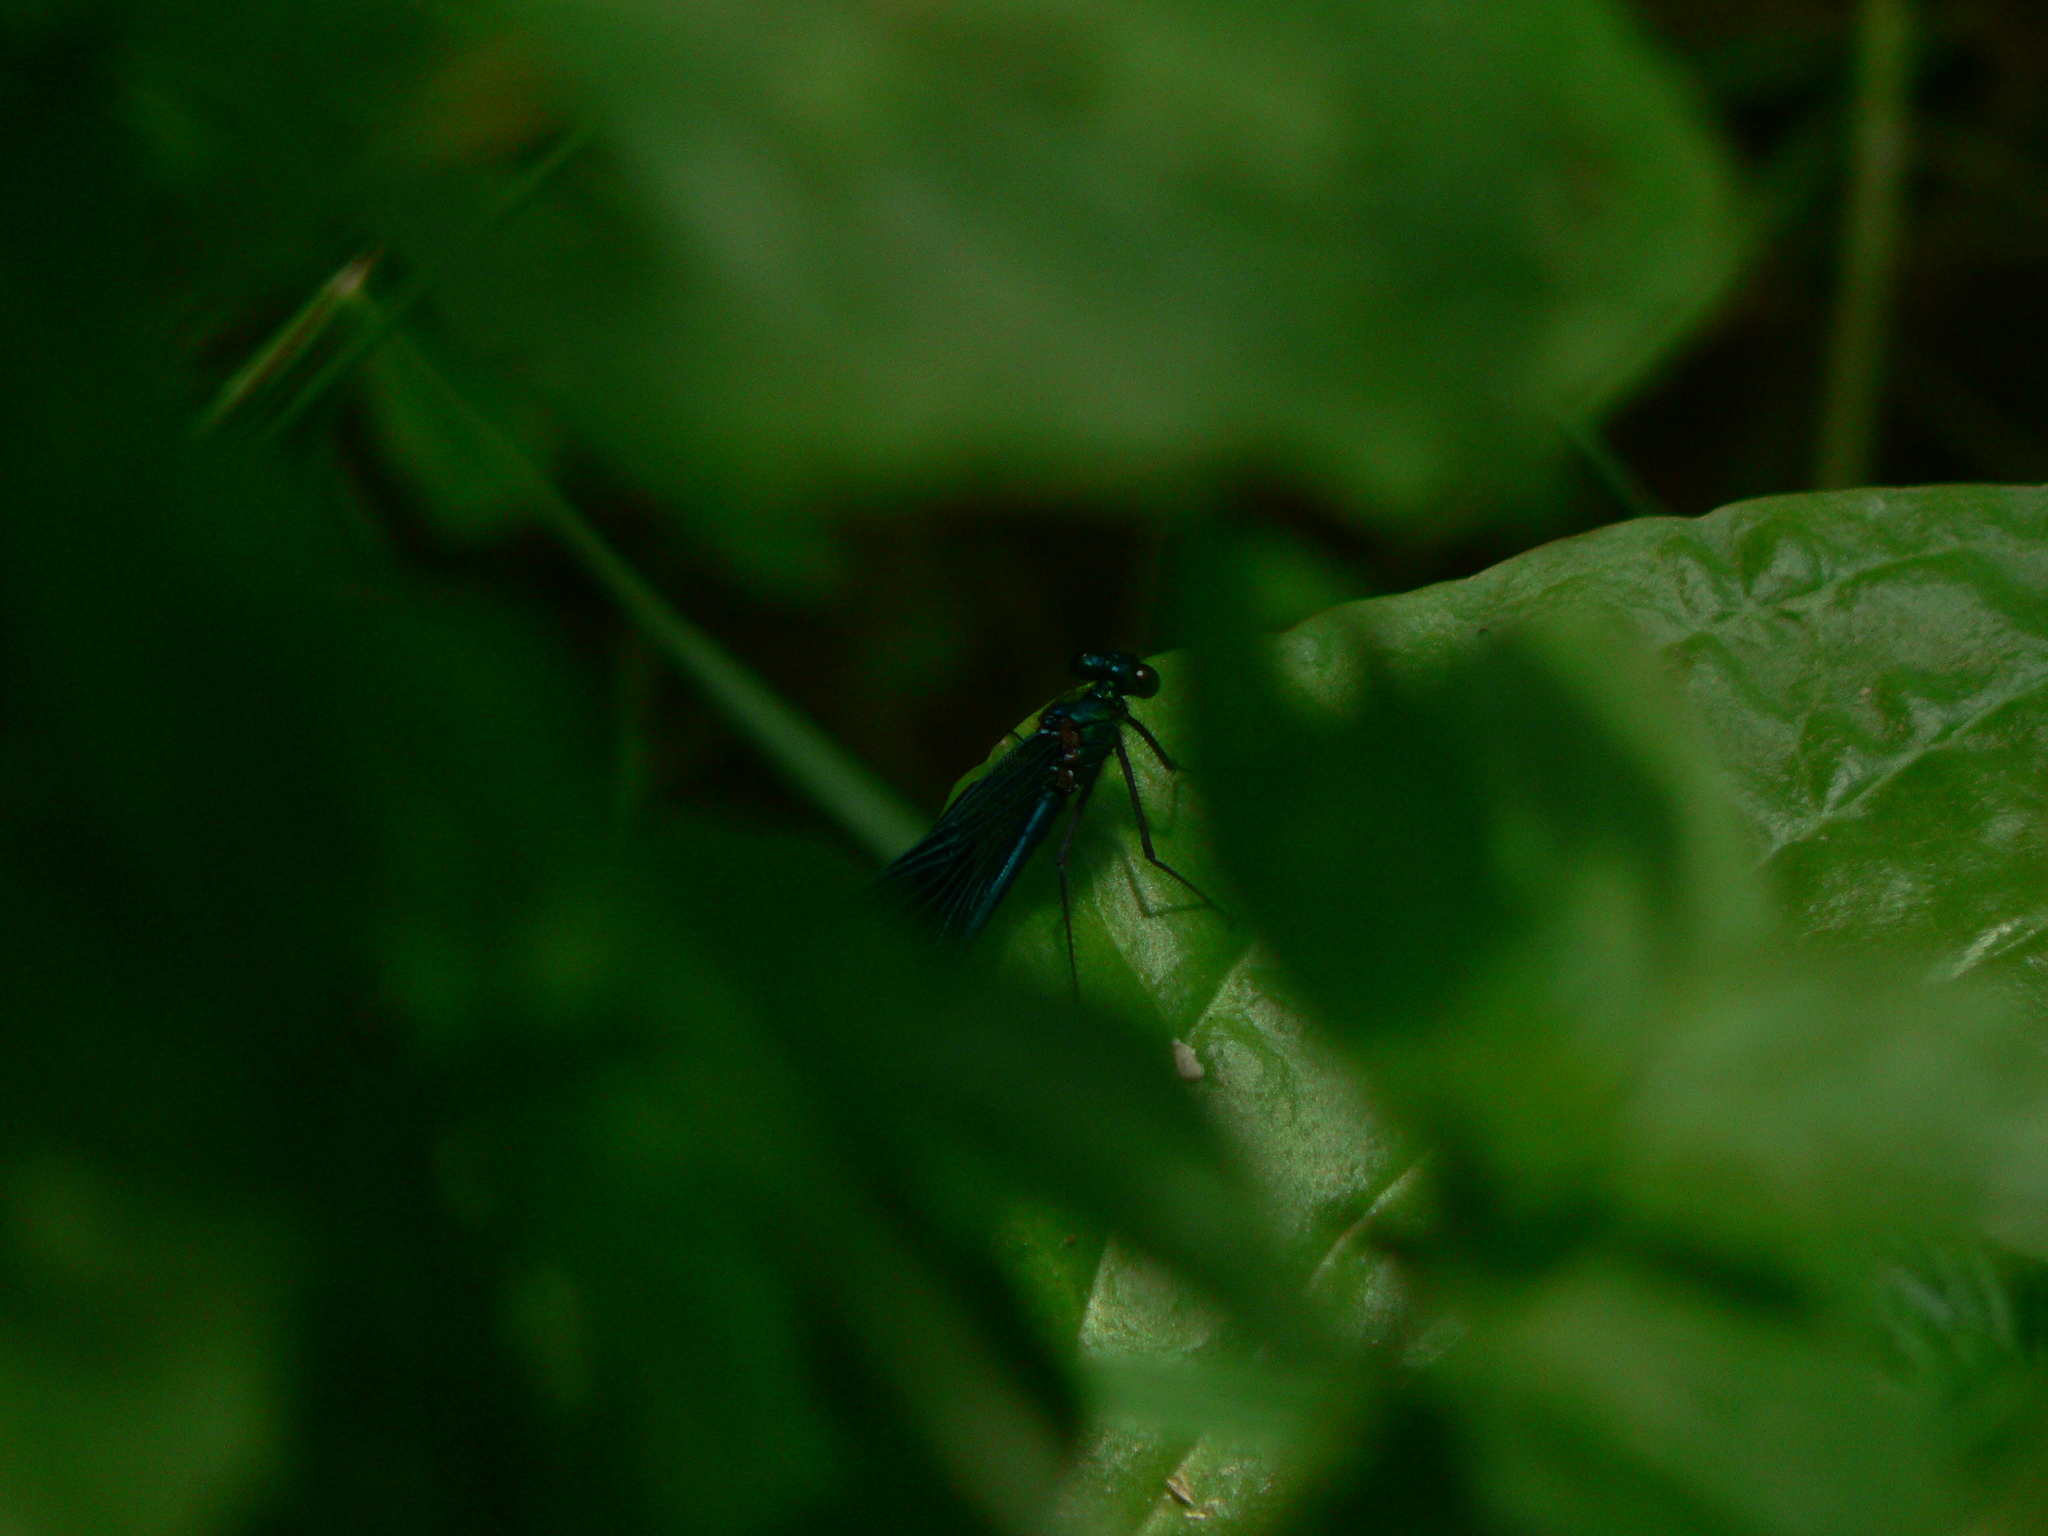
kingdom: Animalia
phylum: Arthropoda
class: Insecta
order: Odonata
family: Calopterygidae
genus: Calopteryx
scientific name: Calopteryx xanthostoma
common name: Western demoiselle
